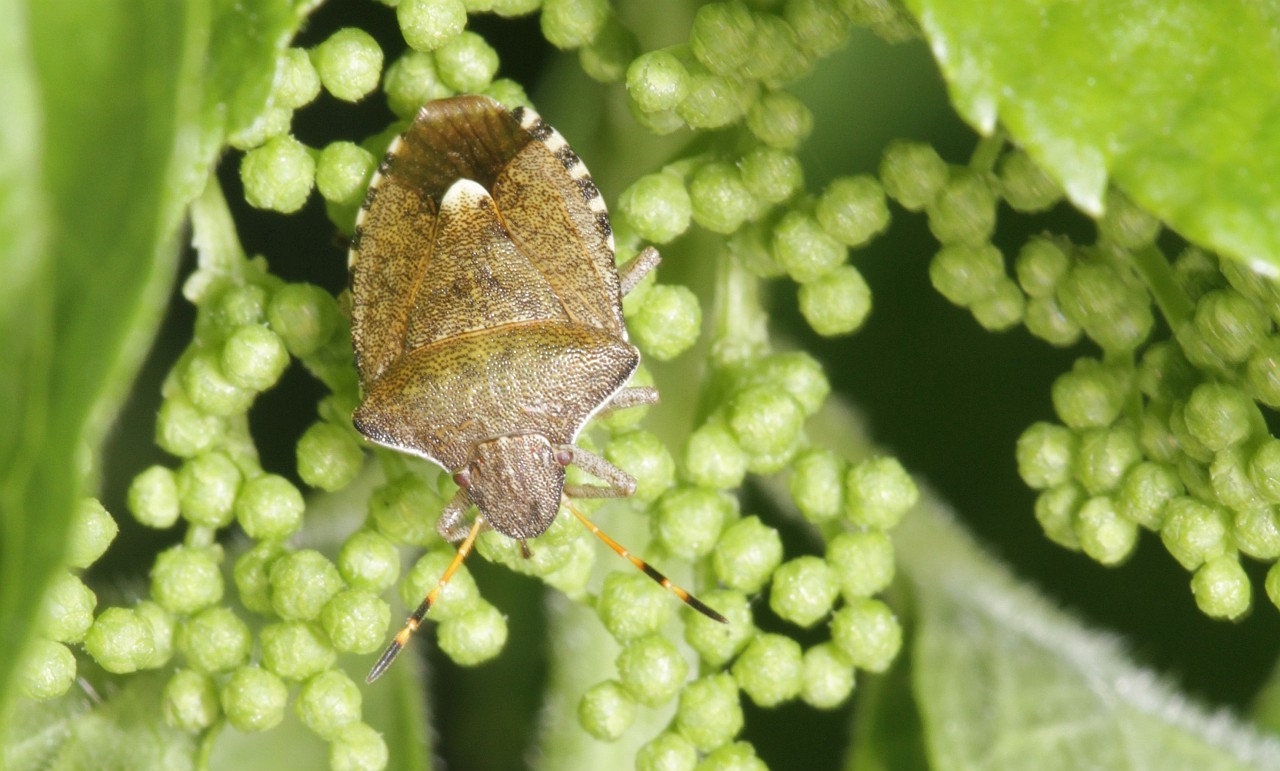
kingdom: Animalia
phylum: Arthropoda
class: Insecta
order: Hemiptera
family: Pentatomidae
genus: Holcostethus
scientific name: Holcostethus strictus
